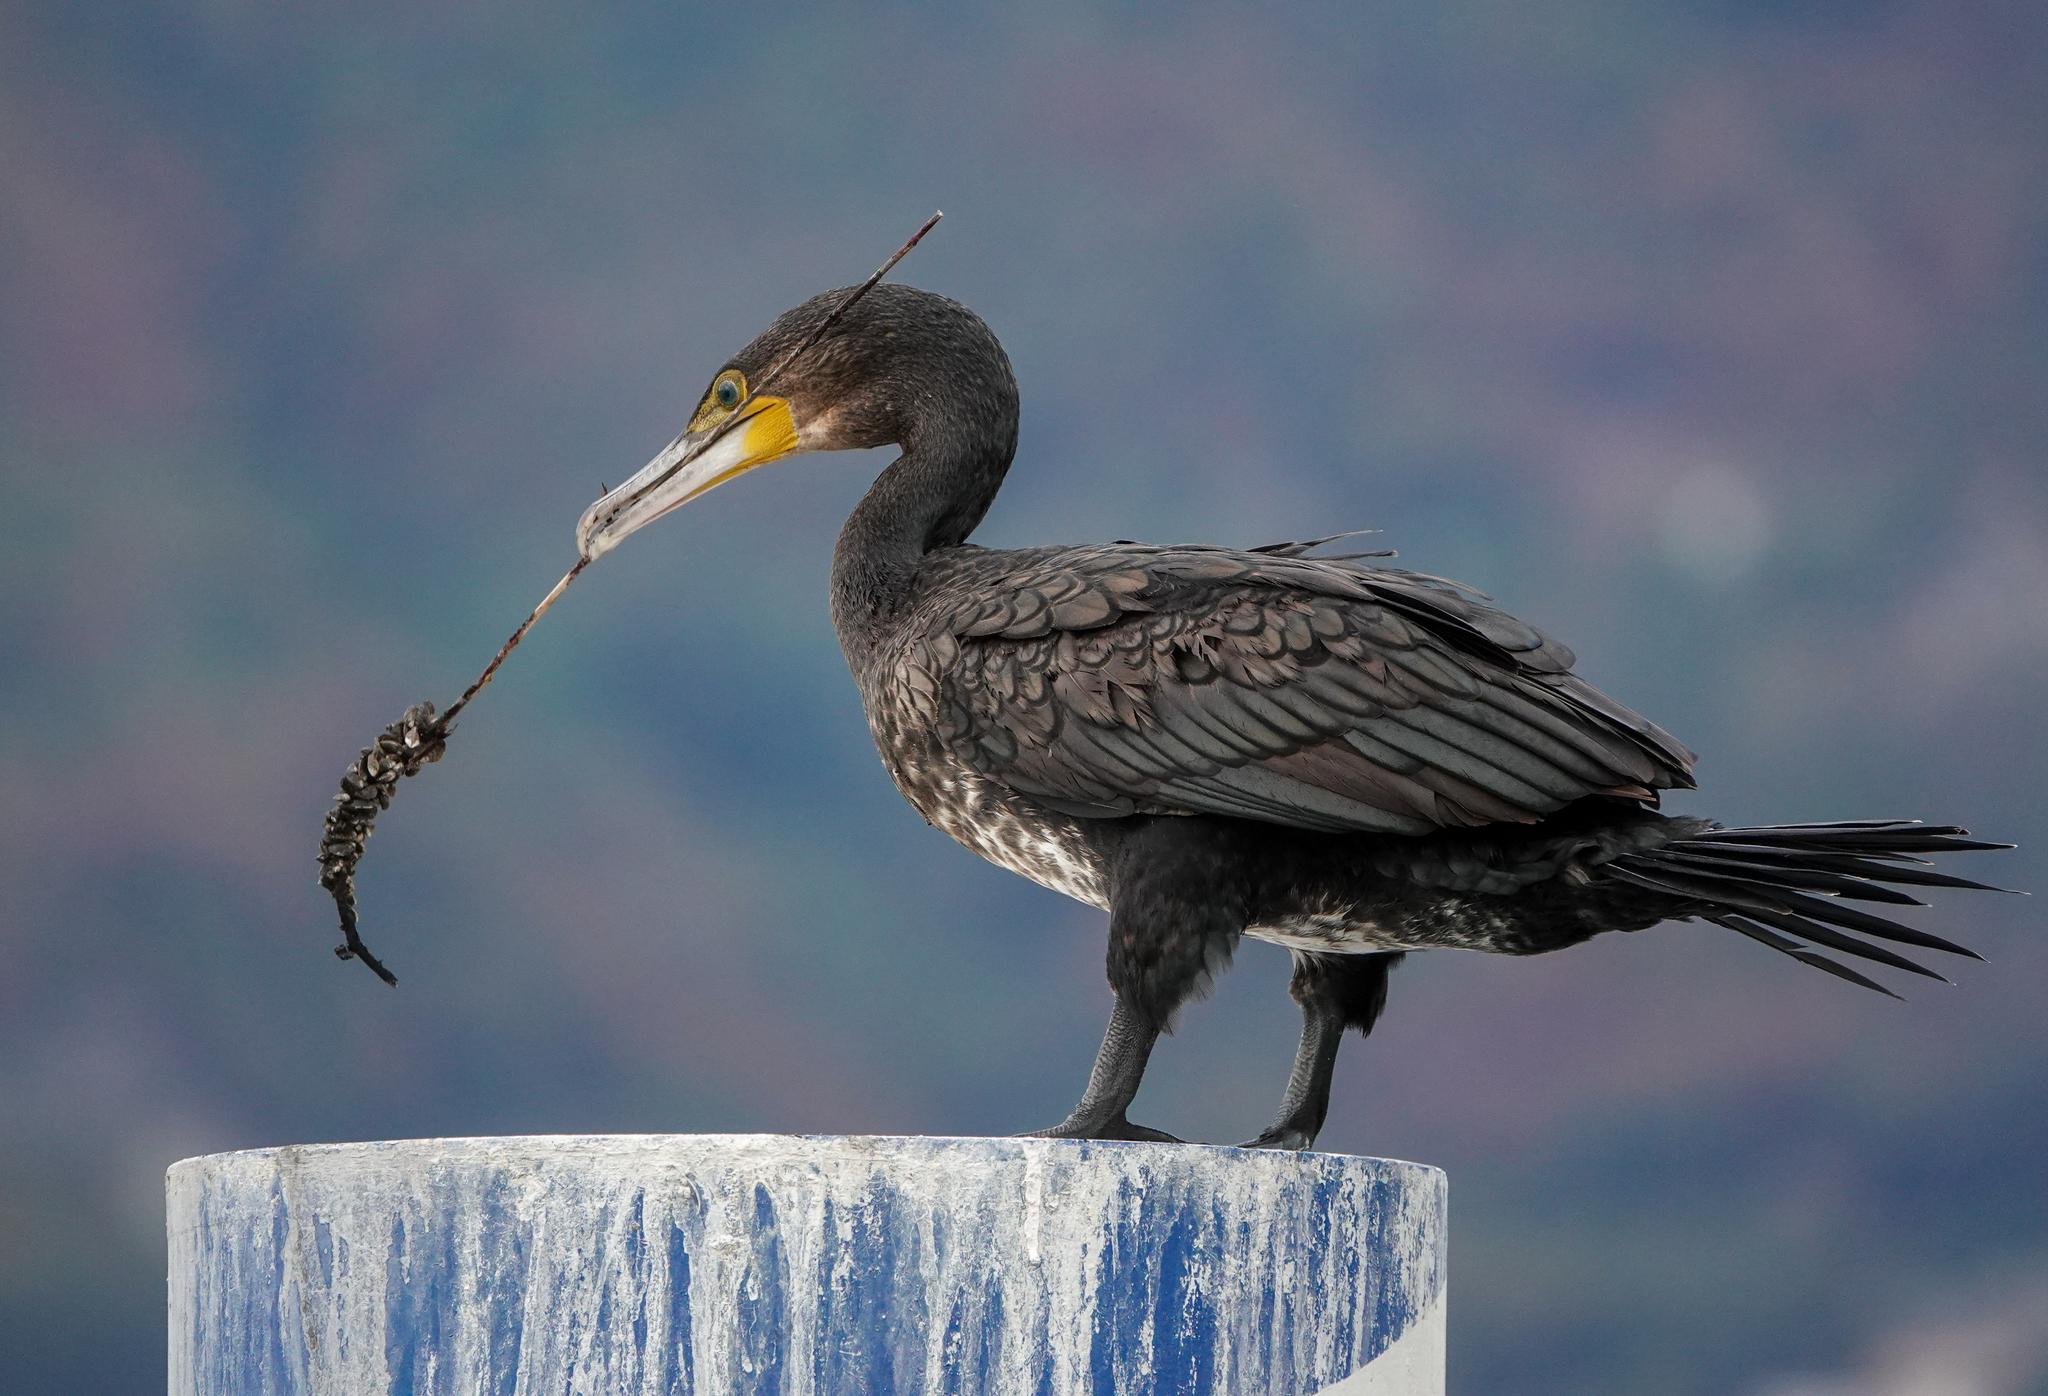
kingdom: Animalia
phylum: Chordata
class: Aves
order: Suliformes
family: Phalacrocoracidae
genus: Phalacrocorax
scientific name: Phalacrocorax carbo
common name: Great cormorant
